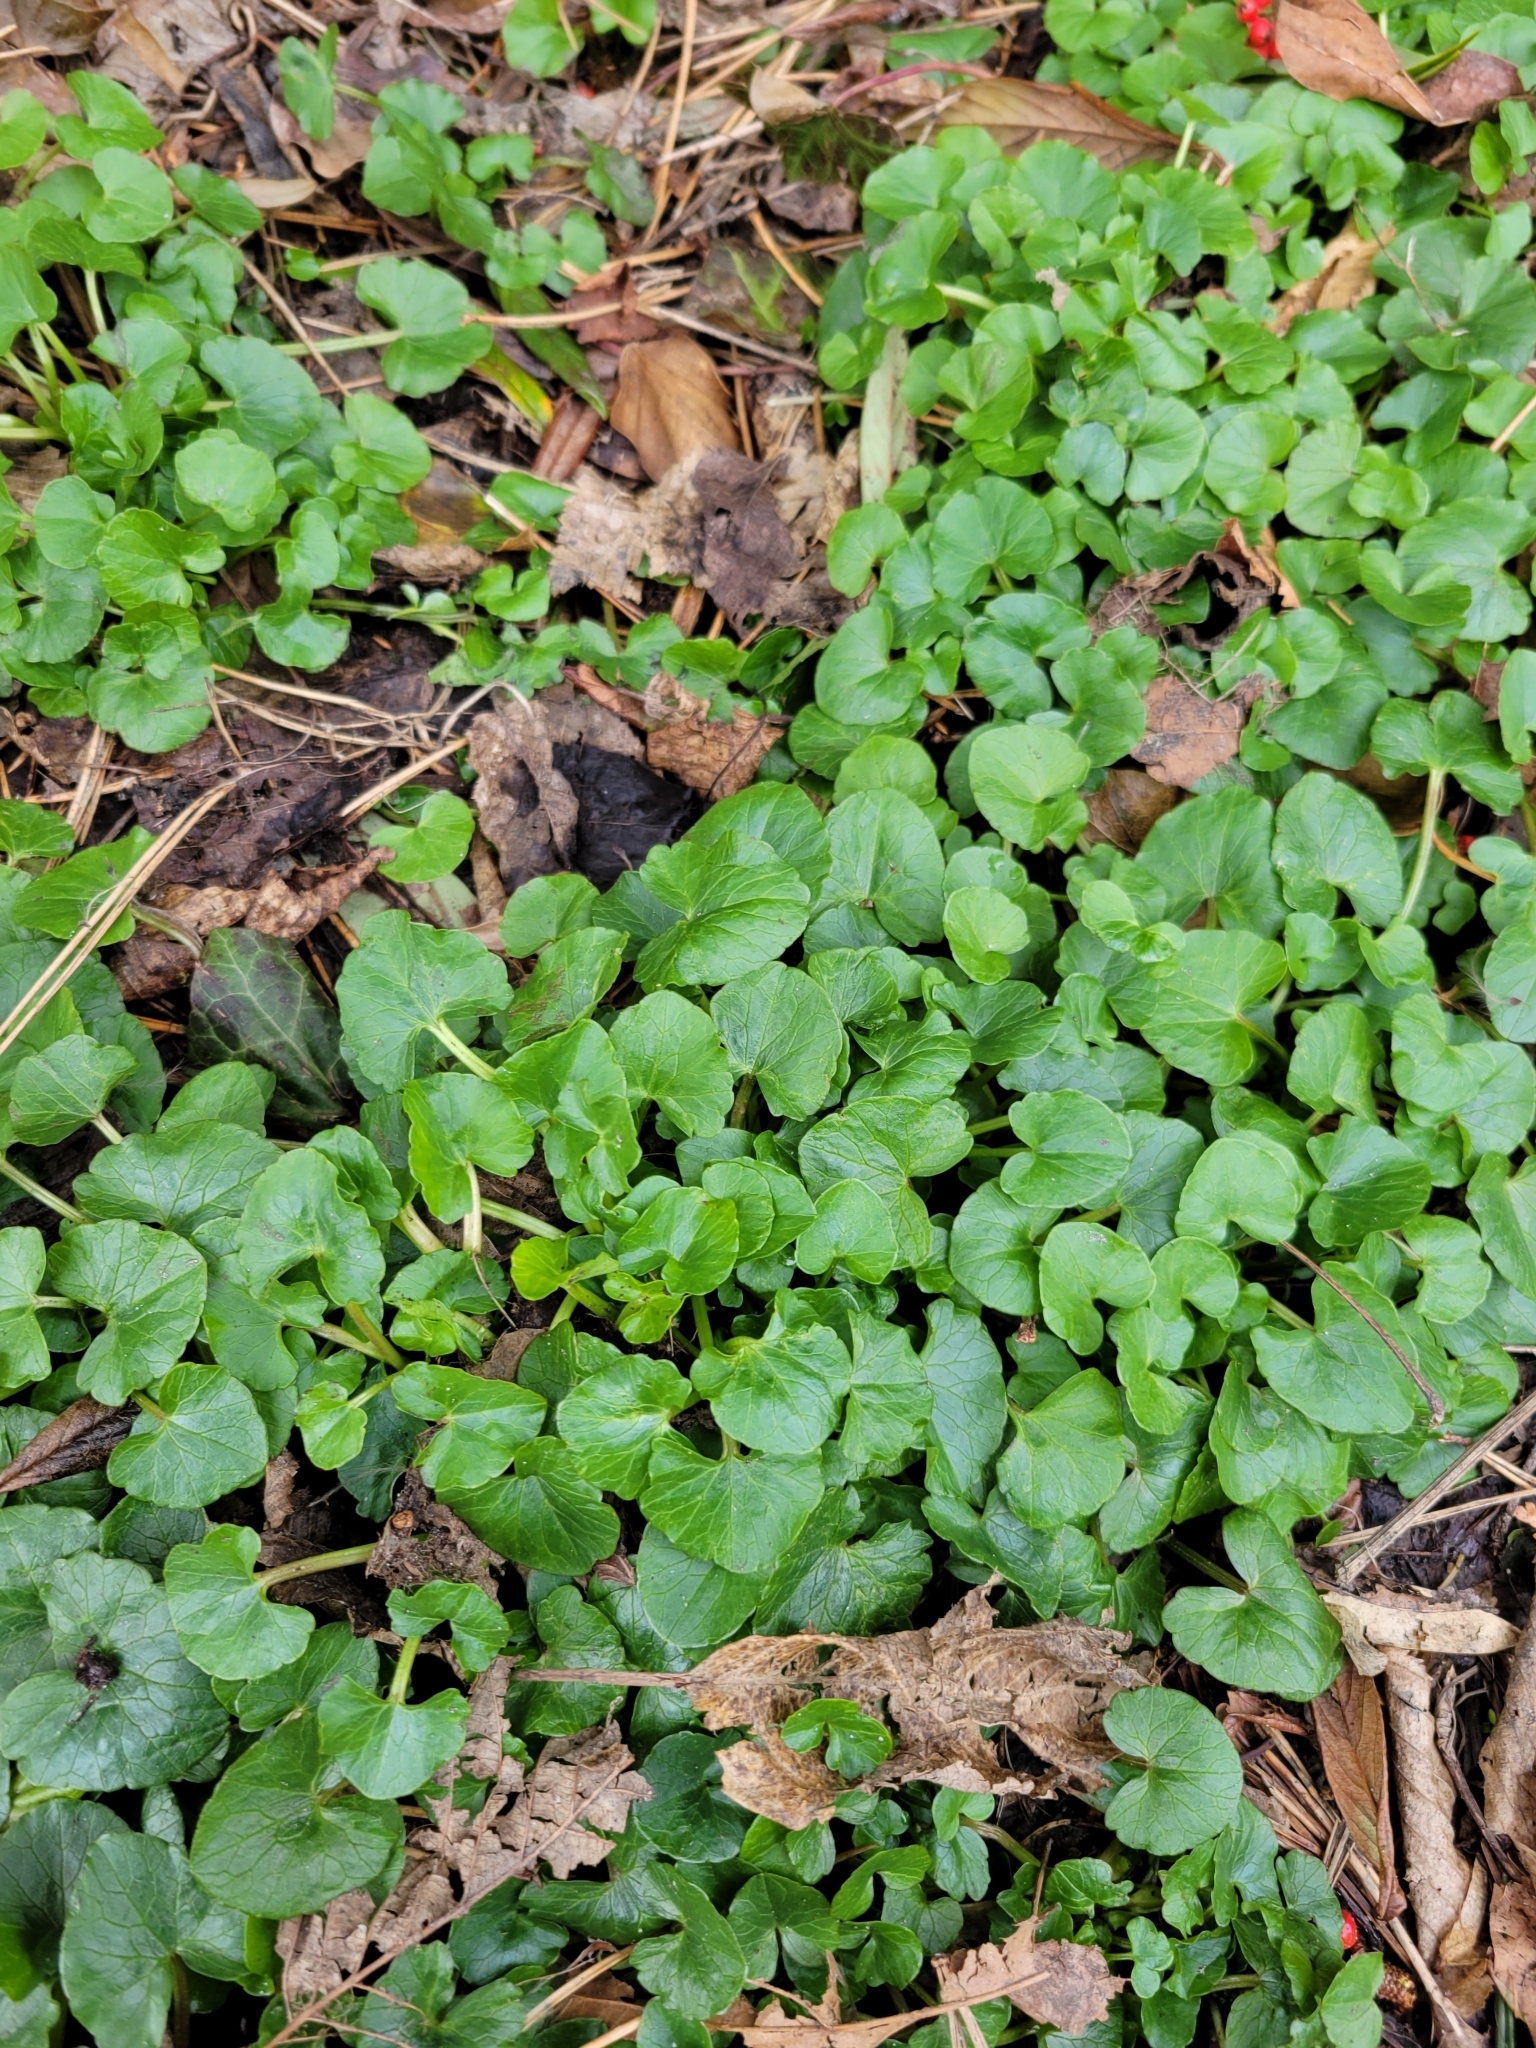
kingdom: Plantae
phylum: Tracheophyta
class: Magnoliopsida
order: Ranunculales
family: Ranunculaceae
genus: Ficaria
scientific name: Ficaria verna
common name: Lesser celandine
